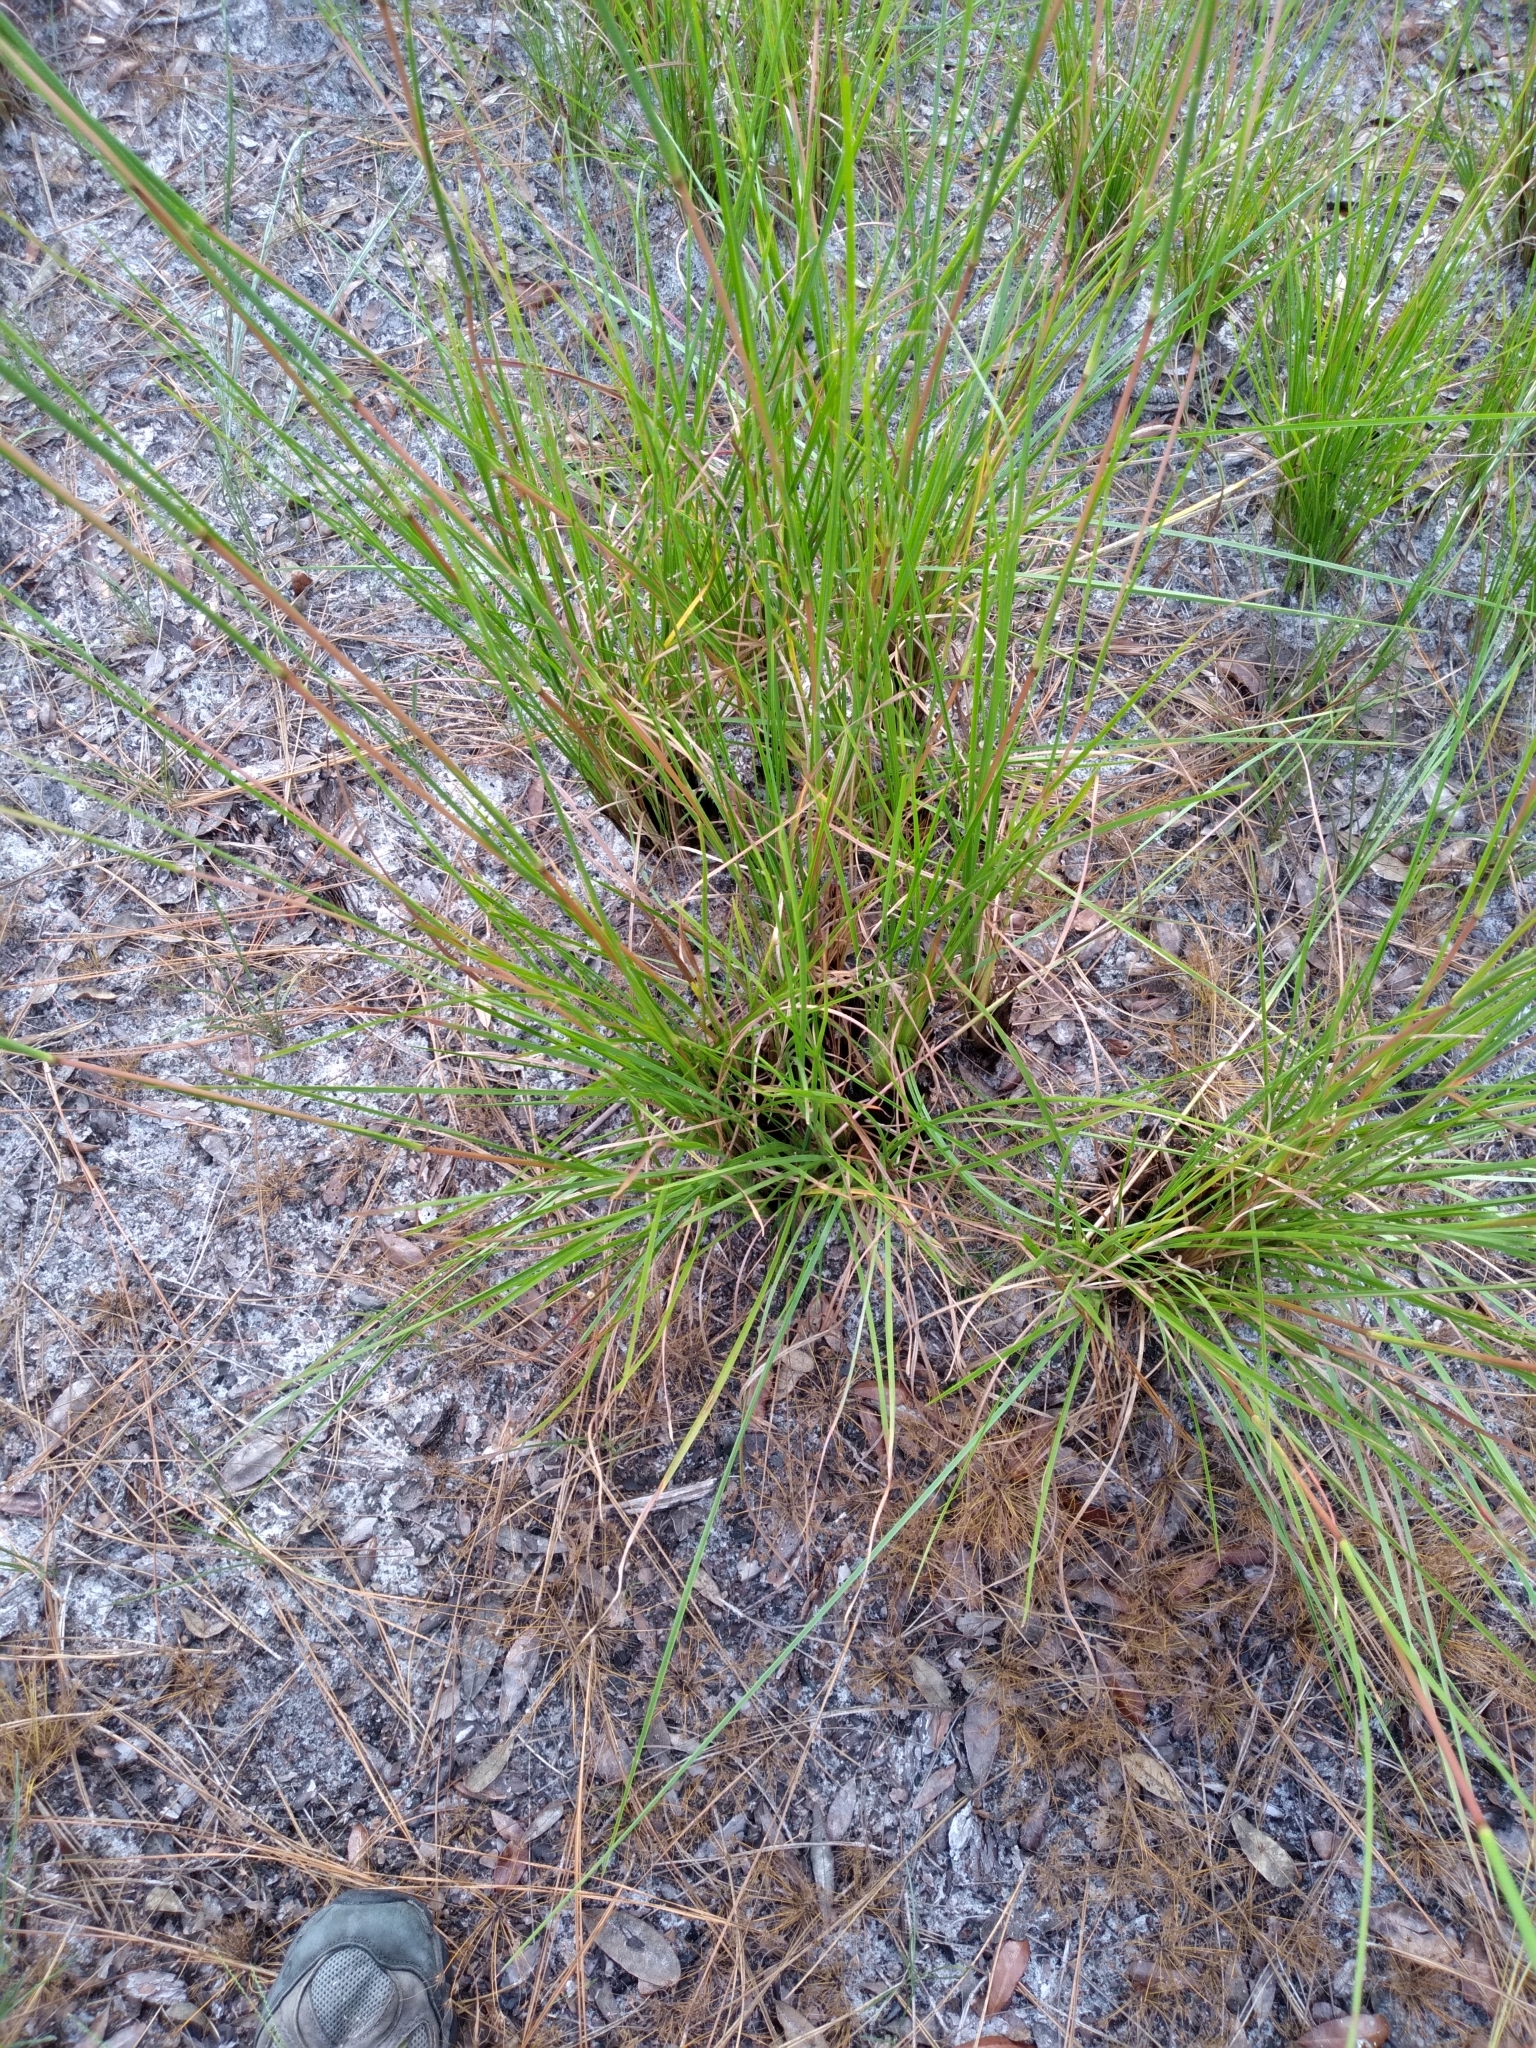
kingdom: Plantae
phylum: Tracheophyta
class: Liliopsida
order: Poales
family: Poaceae
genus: Andropogon
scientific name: Andropogon brachystachyus
